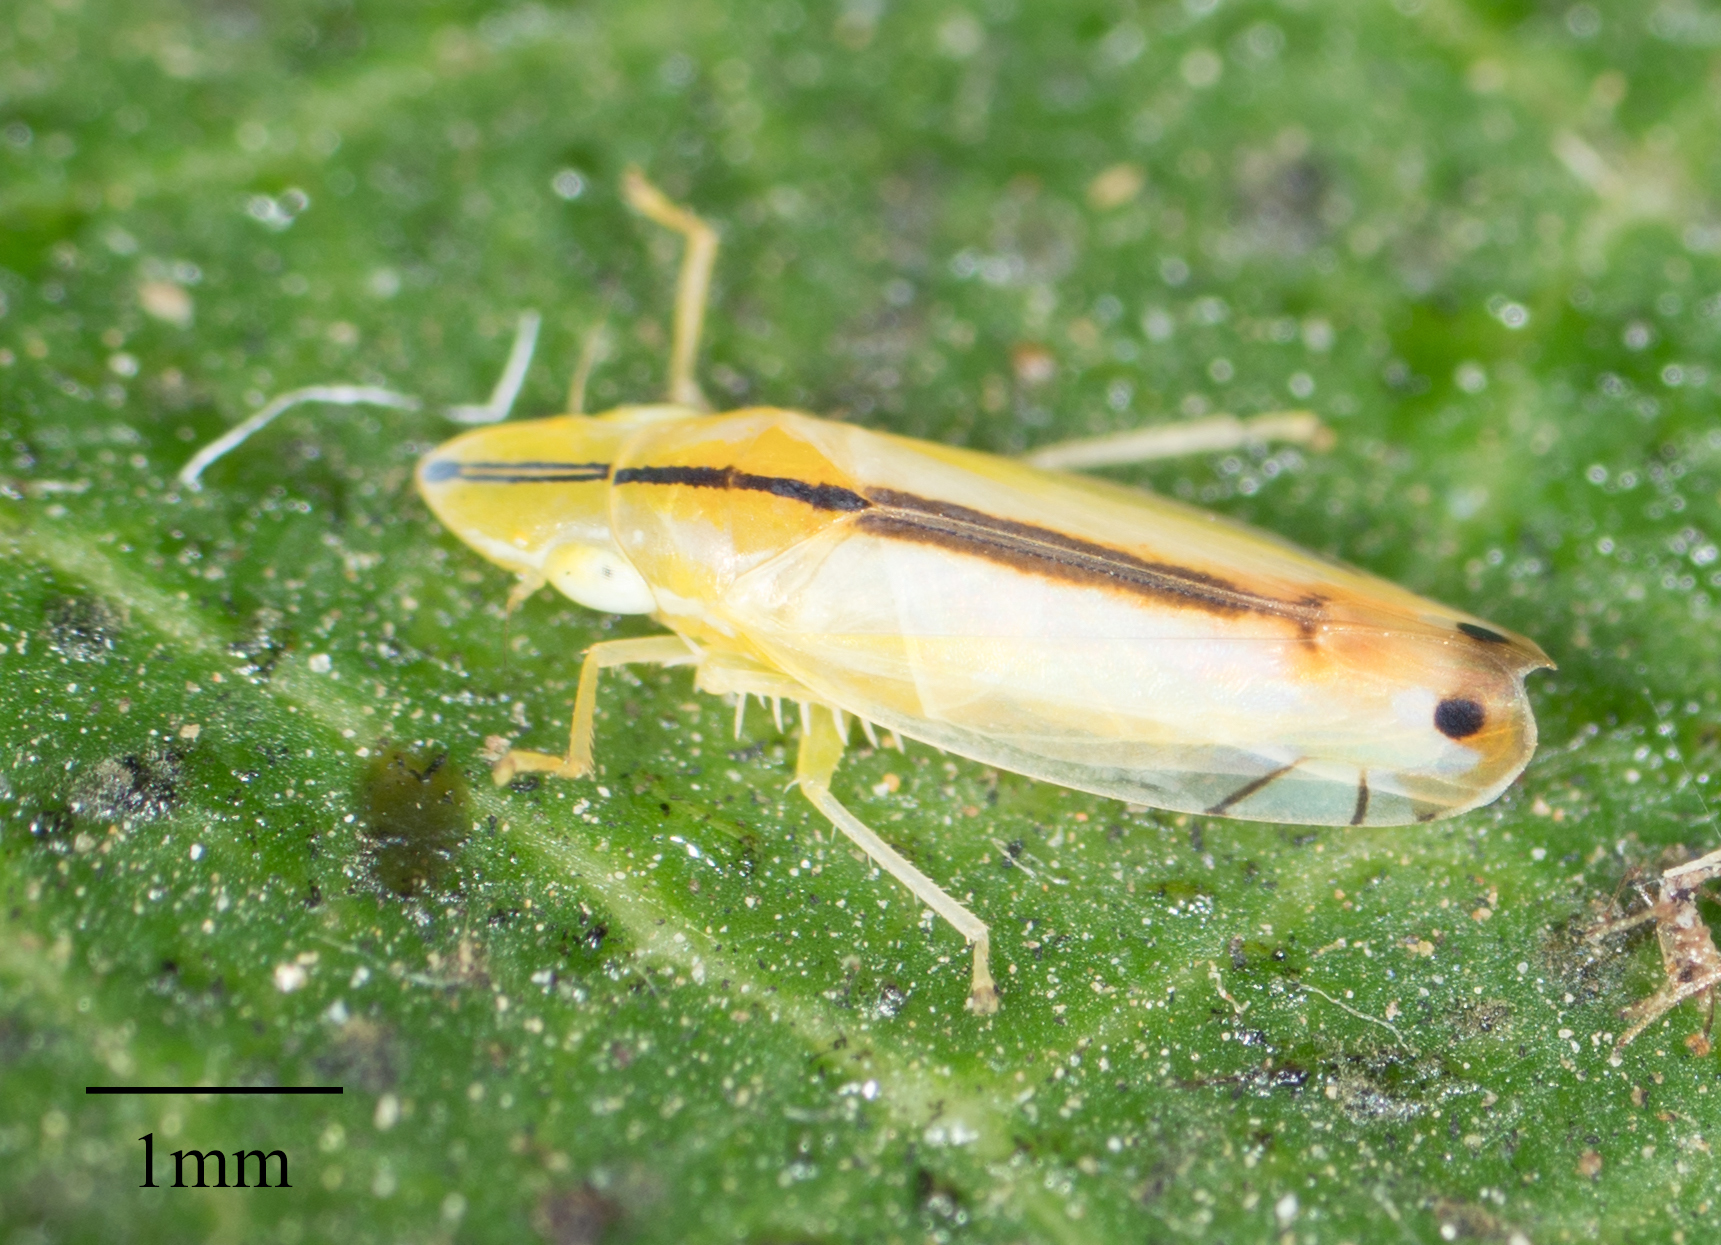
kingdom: Animalia
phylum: Arthropoda
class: Insecta
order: Hemiptera
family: Cicadellidae
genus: Sophonia
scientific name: Sophonia orientalis
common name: Two-spotted leafhopper
